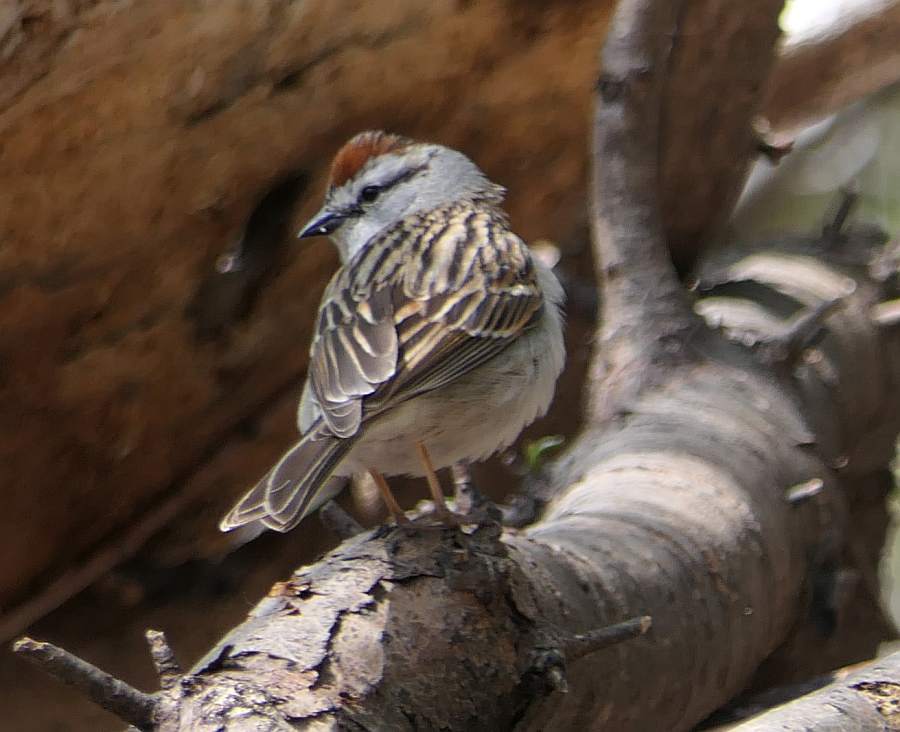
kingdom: Animalia
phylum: Chordata
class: Aves
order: Passeriformes
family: Passerellidae
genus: Spizella
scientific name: Spizella passerina
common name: Chipping sparrow
